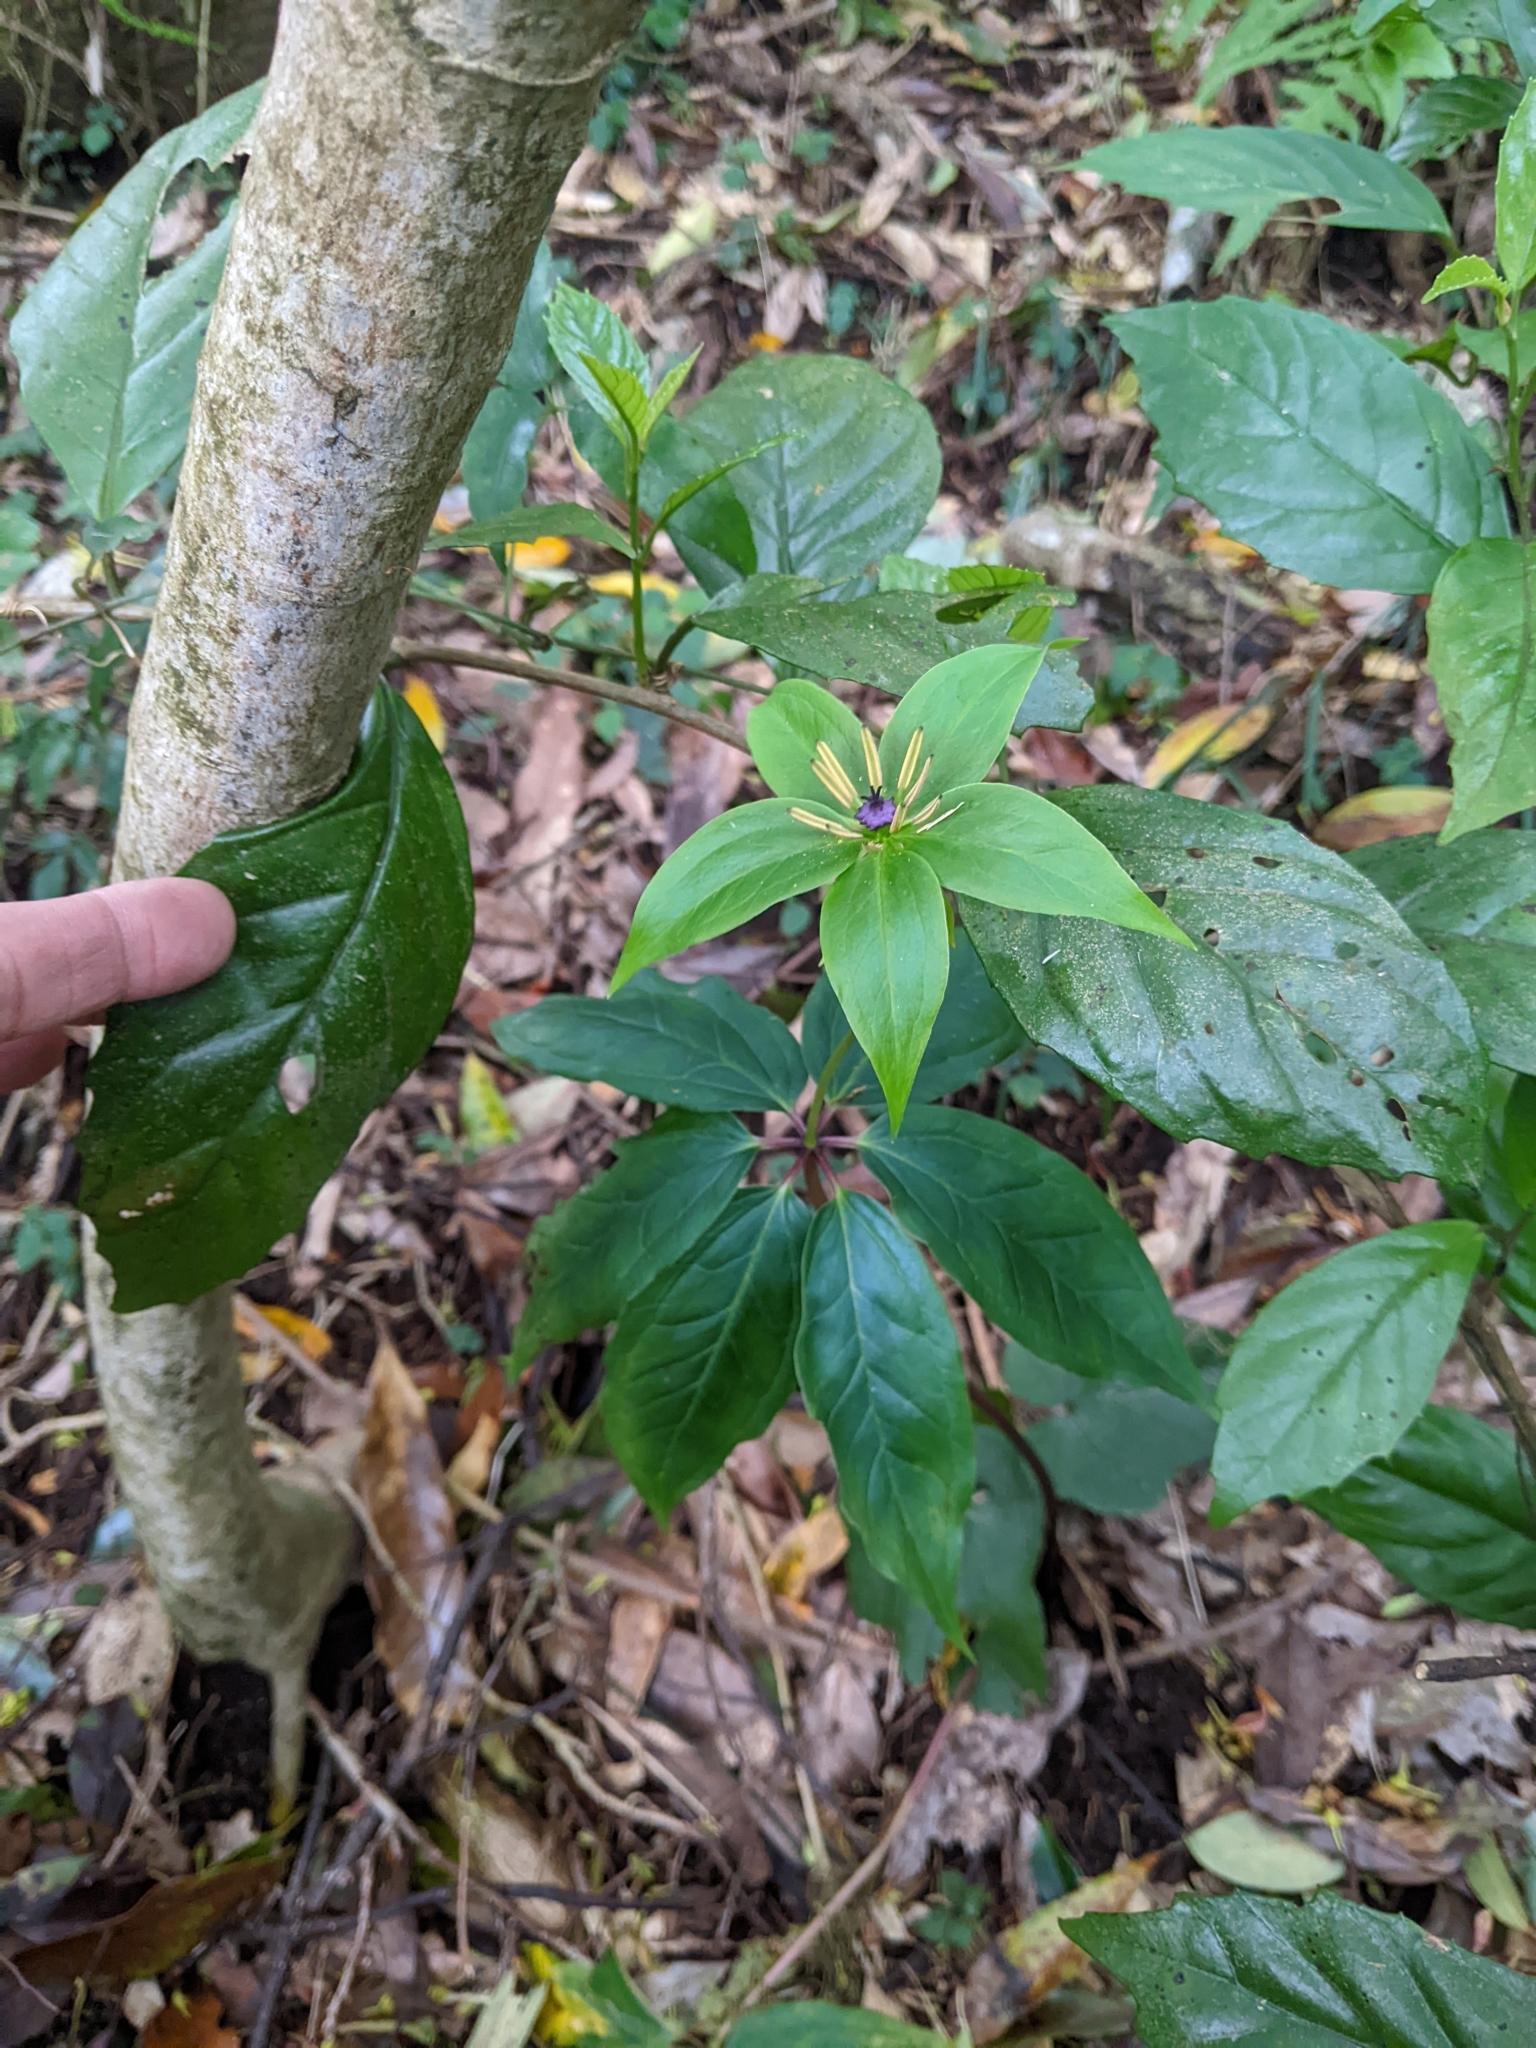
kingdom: Plantae
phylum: Tracheophyta
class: Liliopsida
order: Liliales
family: Melanthiaceae
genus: Paris
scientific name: Paris polyphylla
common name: Love apple
